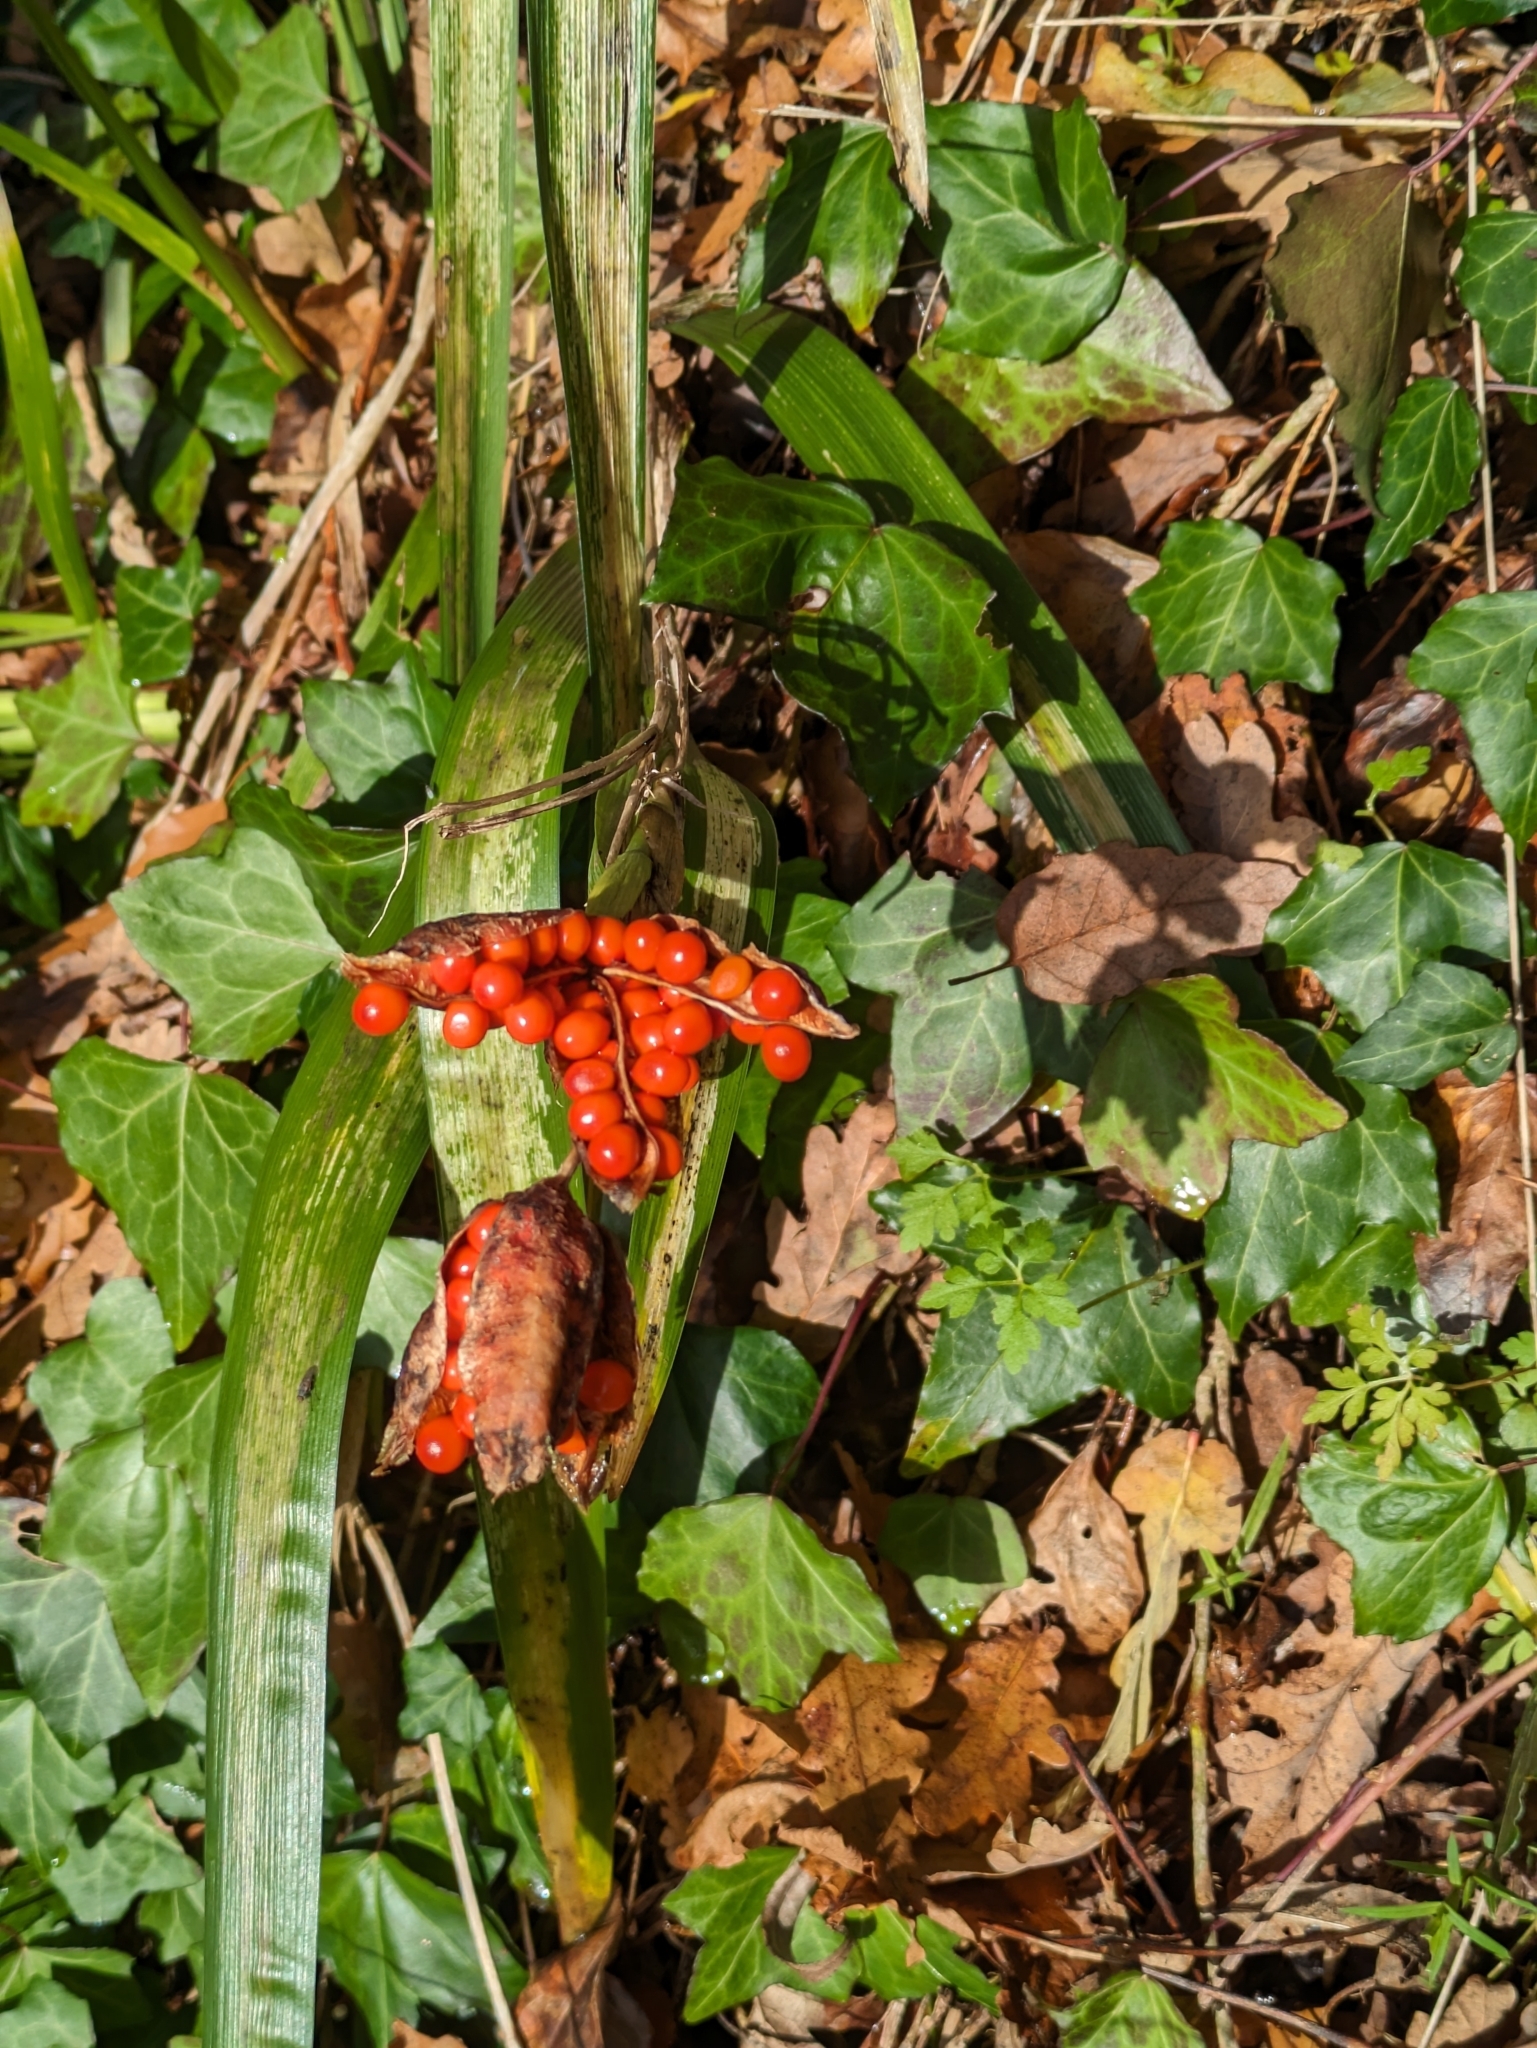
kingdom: Plantae
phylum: Tracheophyta
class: Liliopsida
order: Asparagales
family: Iridaceae
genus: Iris
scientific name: Iris foetidissima
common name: Stinking iris
